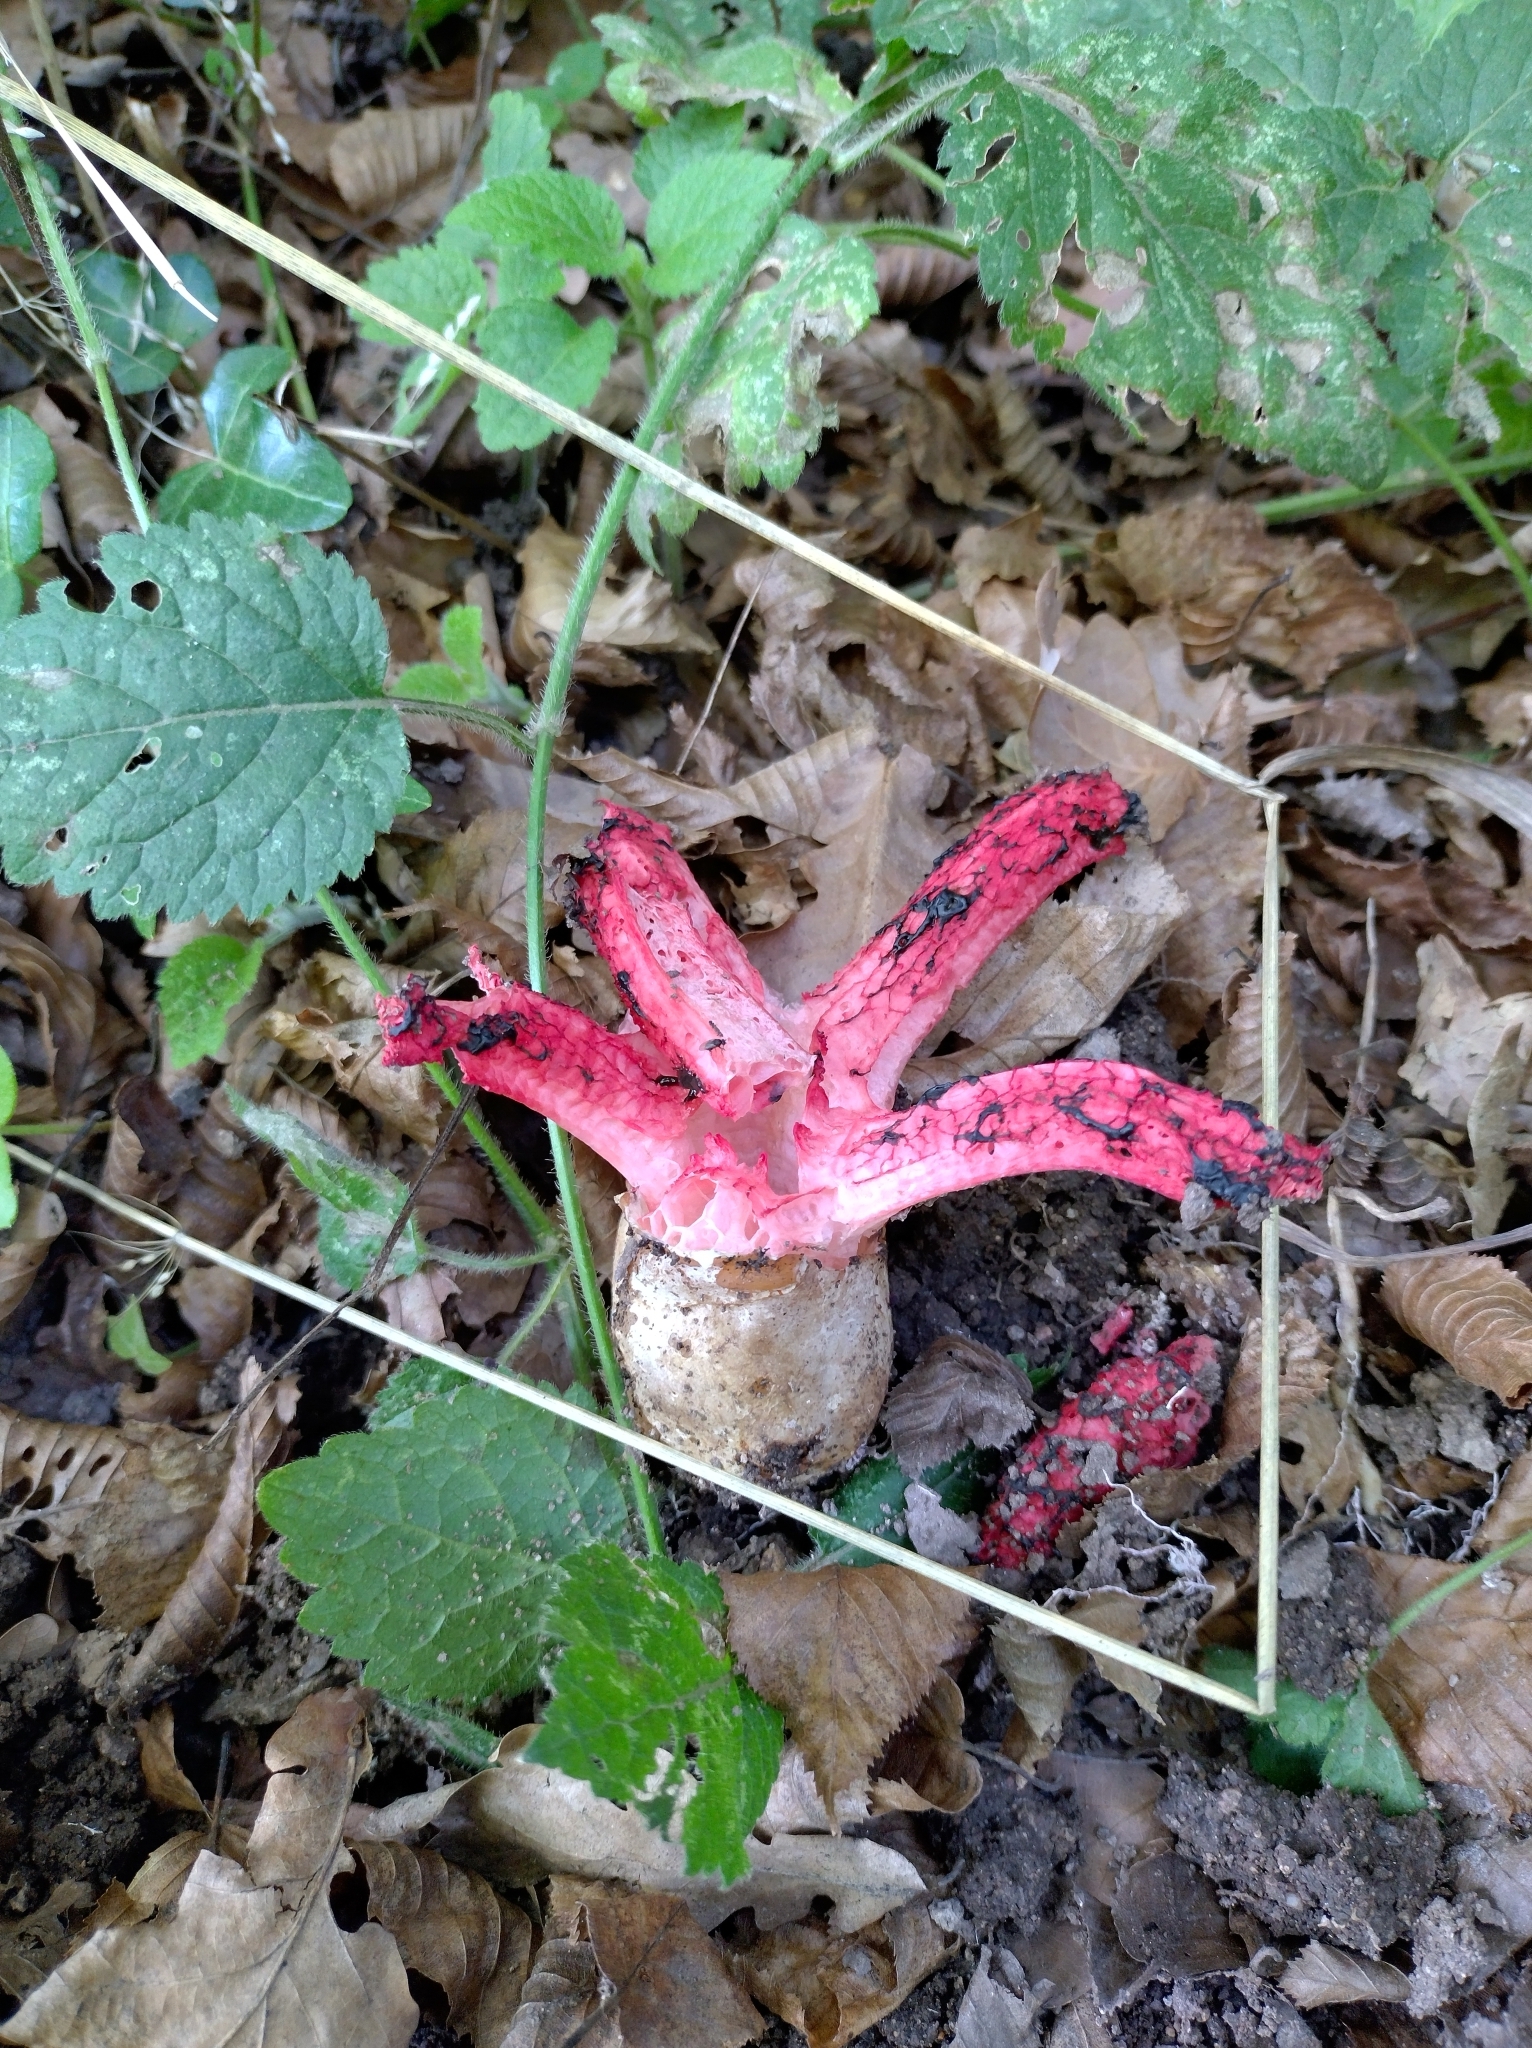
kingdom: Fungi
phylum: Basidiomycota
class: Agaricomycetes
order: Phallales
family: Phallaceae
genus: Clathrus
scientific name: Clathrus archeri
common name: Devil's fingers
